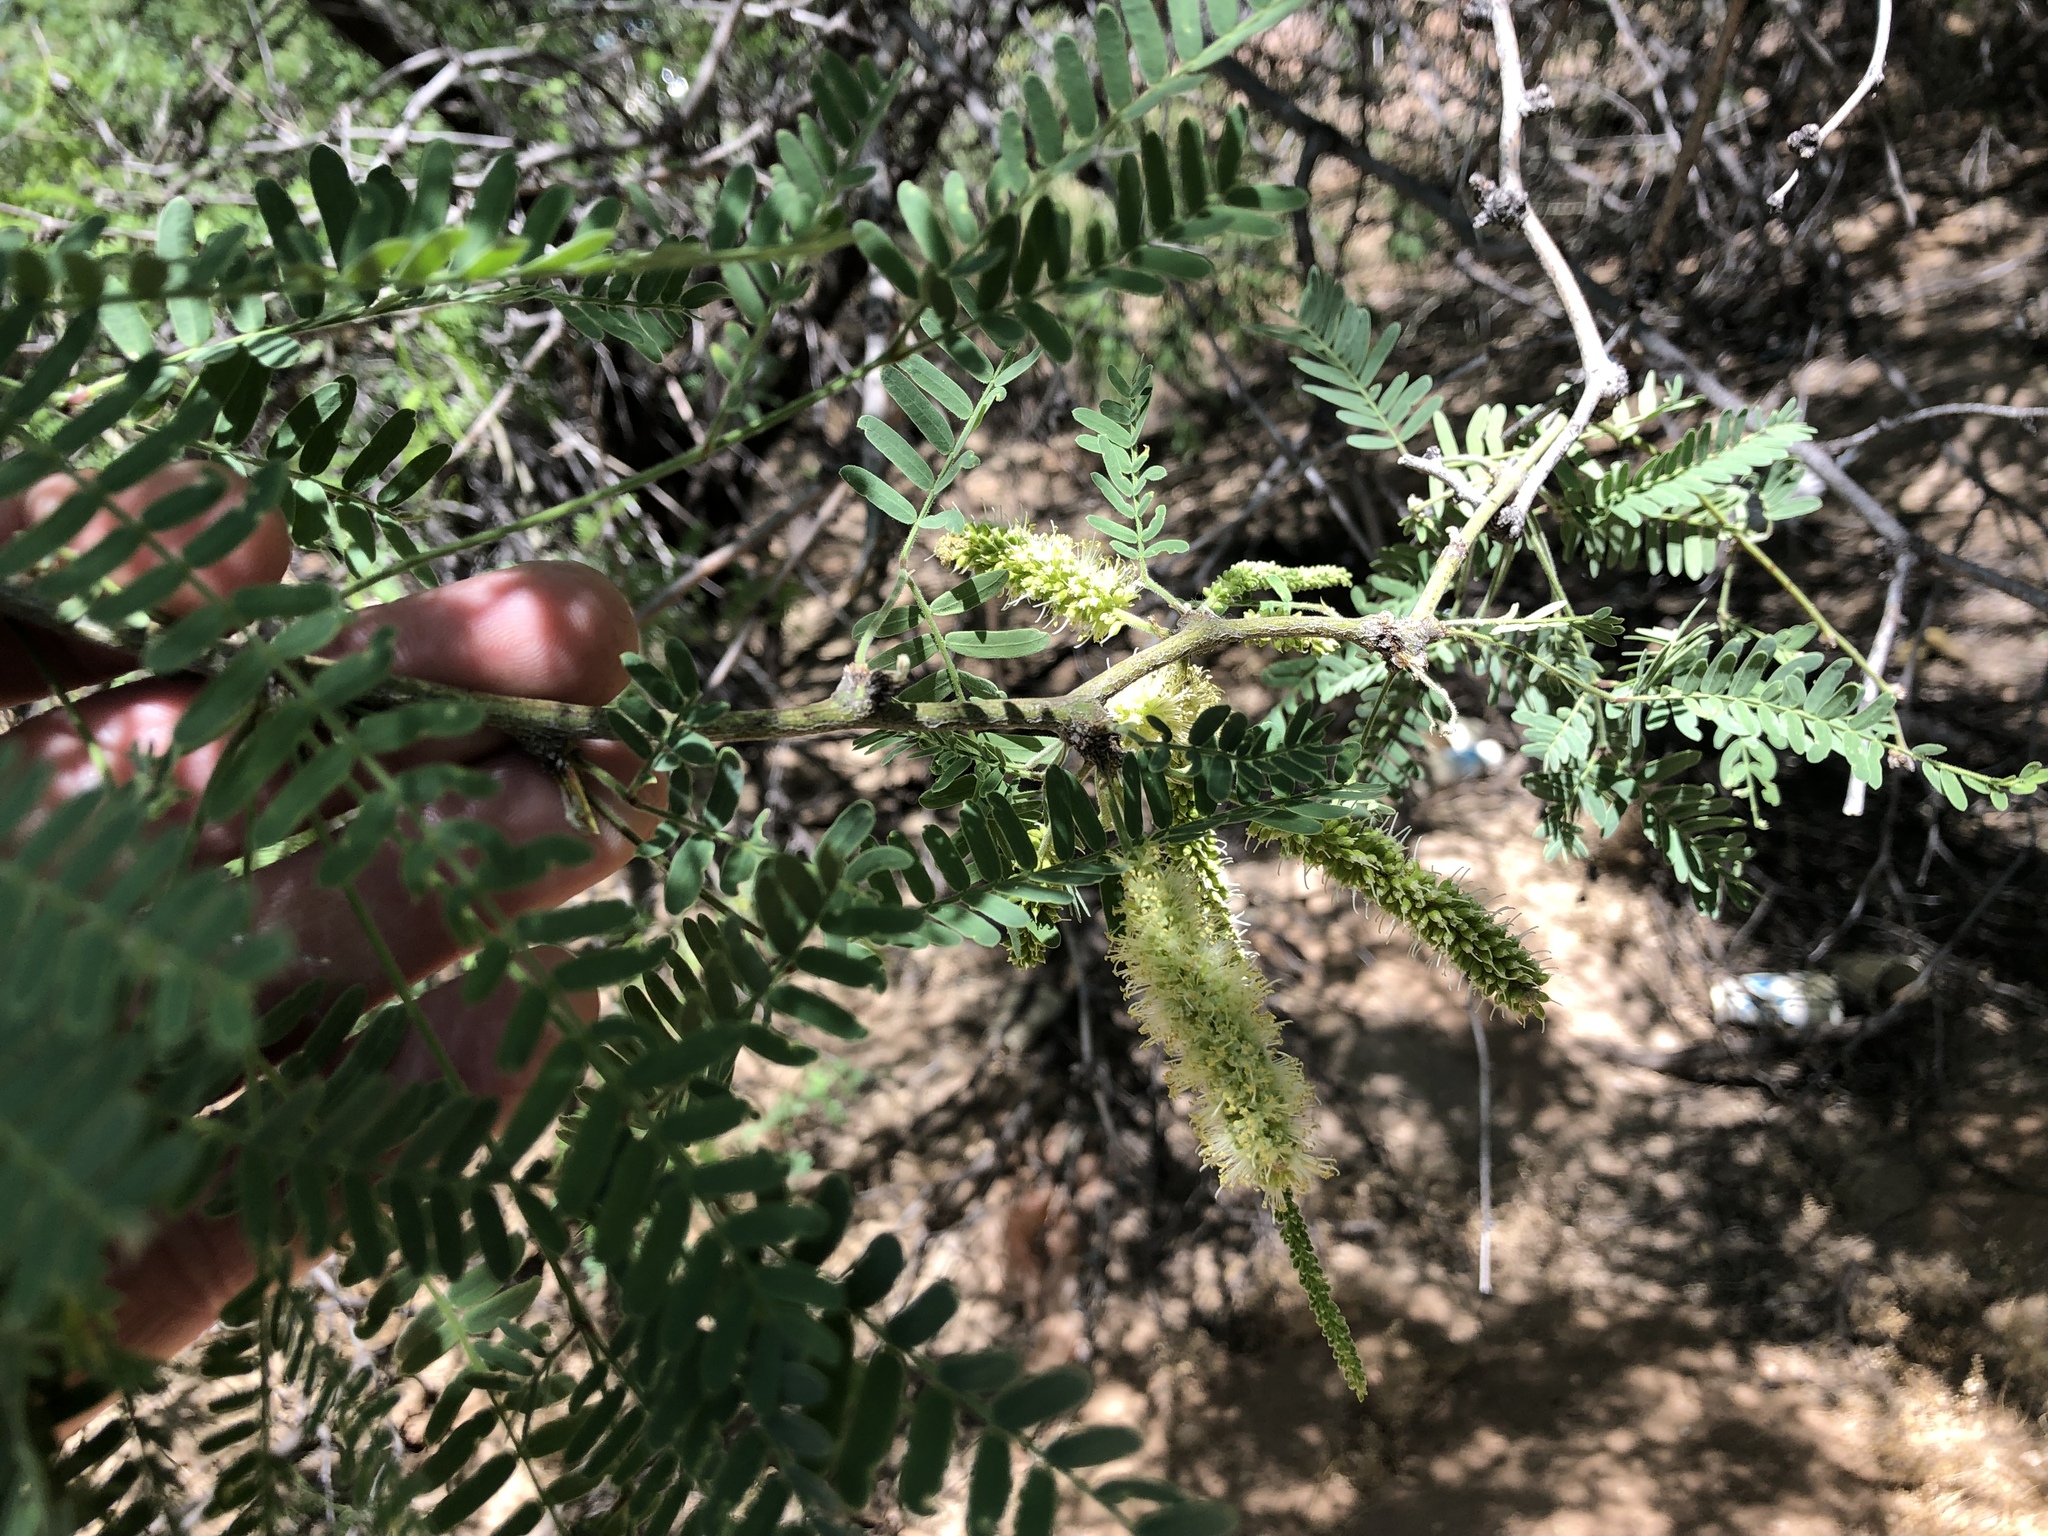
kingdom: Plantae
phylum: Tracheophyta
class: Magnoliopsida
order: Fabales
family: Fabaceae
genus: Prosopis
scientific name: Prosopis velutina
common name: Velvet mesquite
